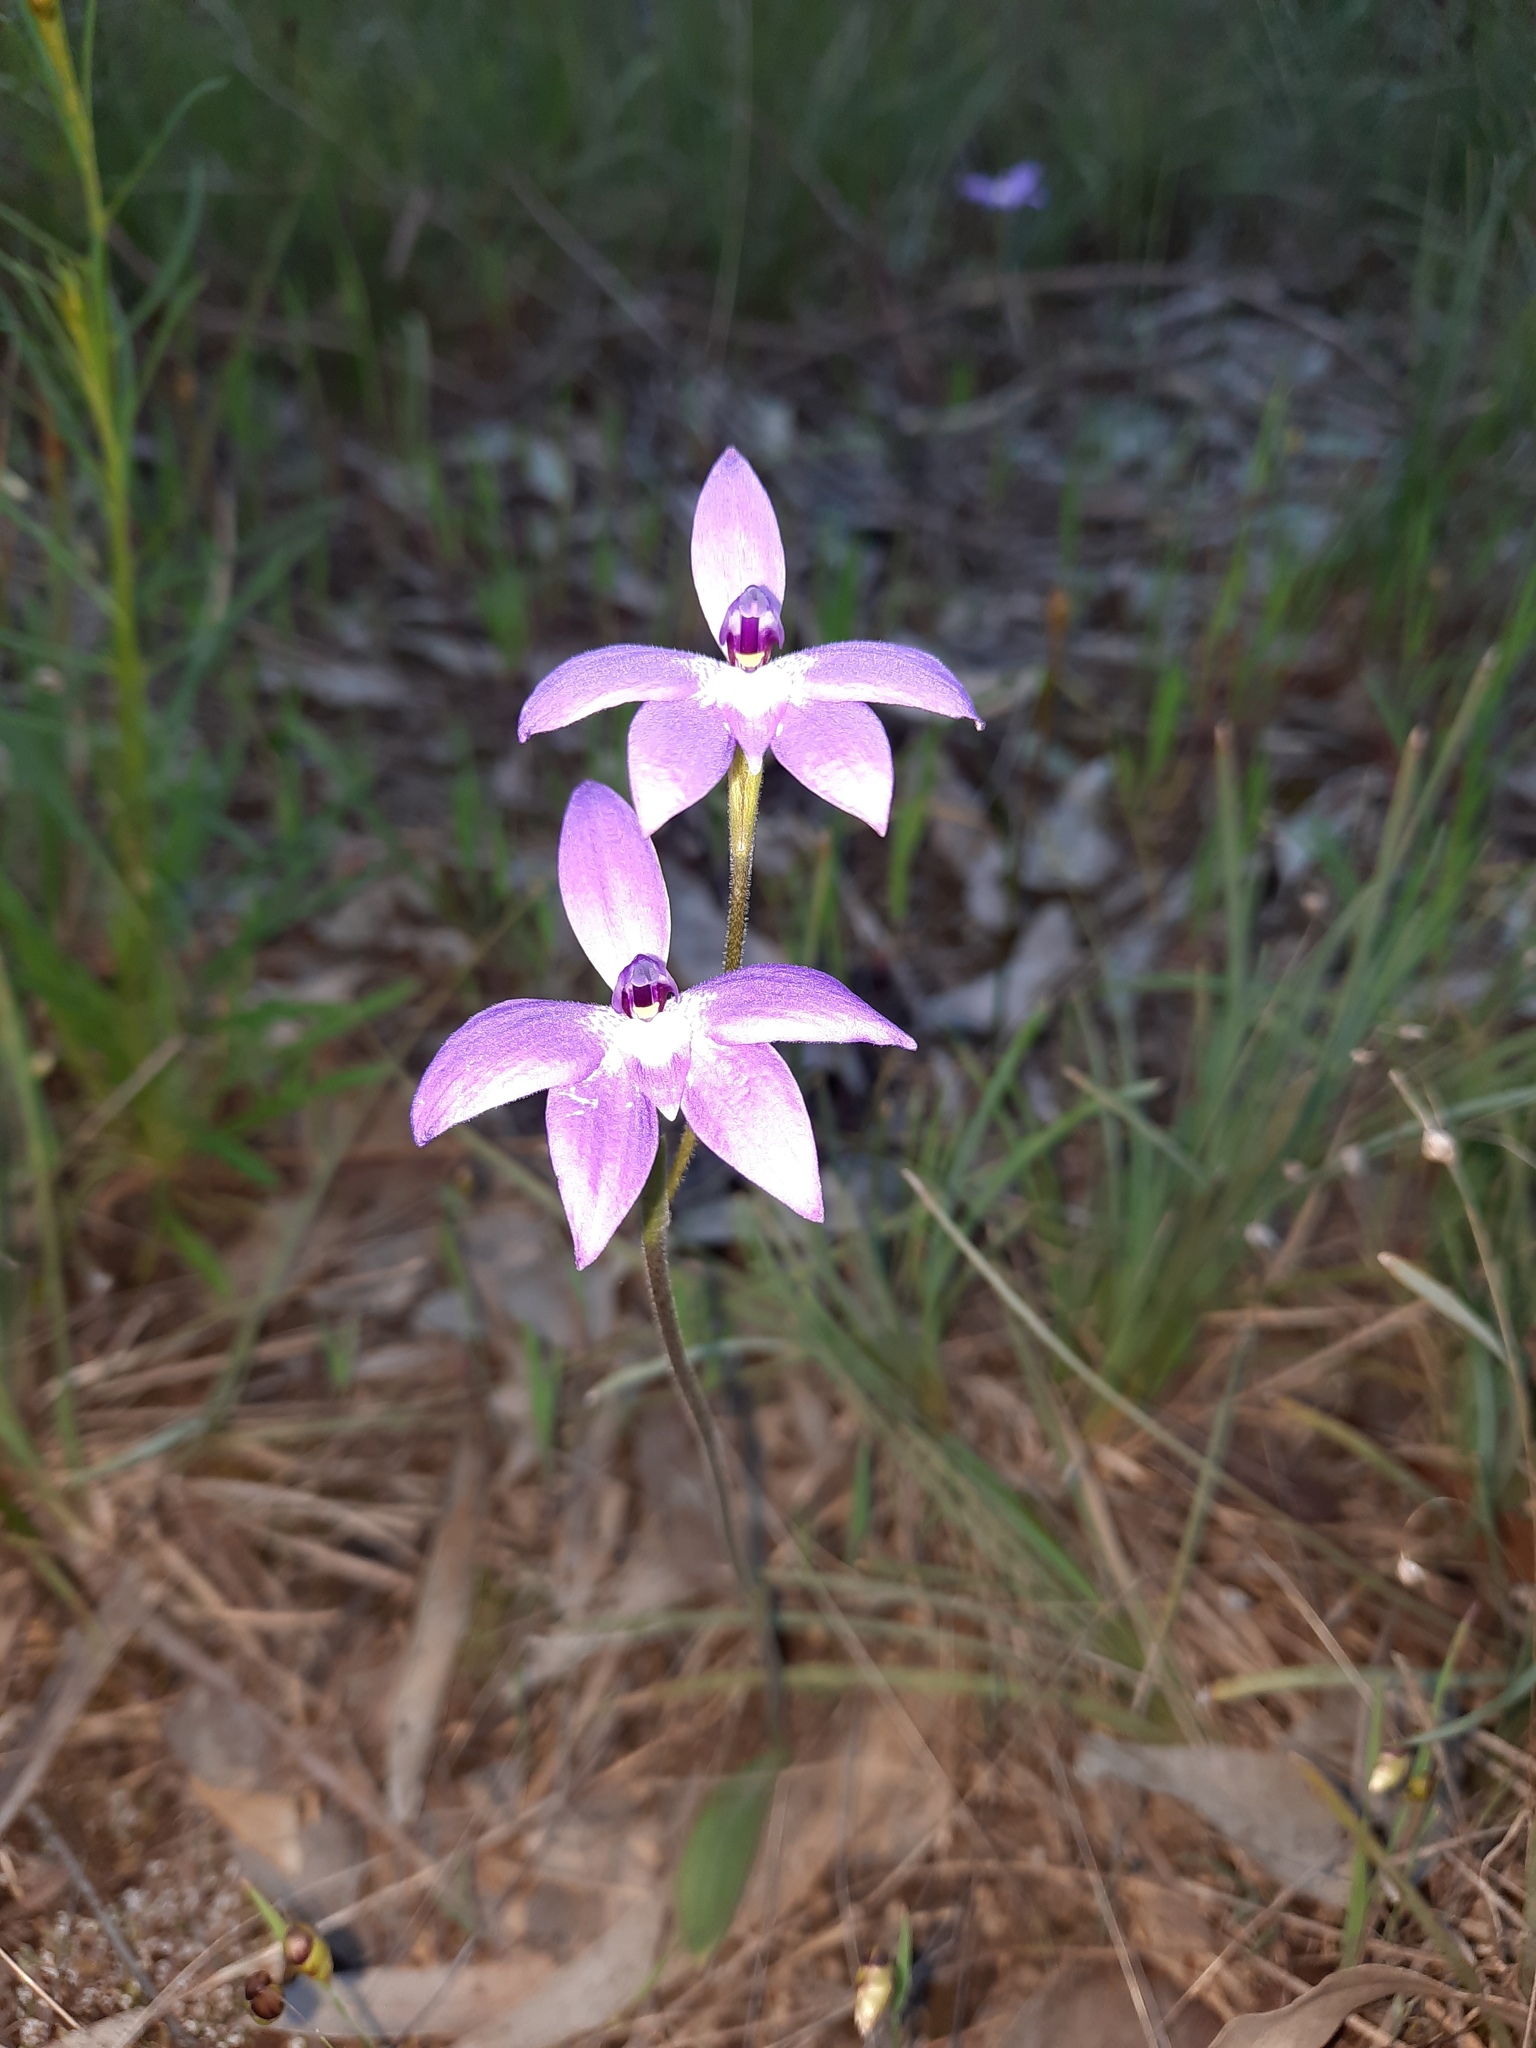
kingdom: Plantae
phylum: Tracheophyta
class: Liliopsida
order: Asparagales
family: Orchidaceae
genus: Caladenia
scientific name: Caladenia major
